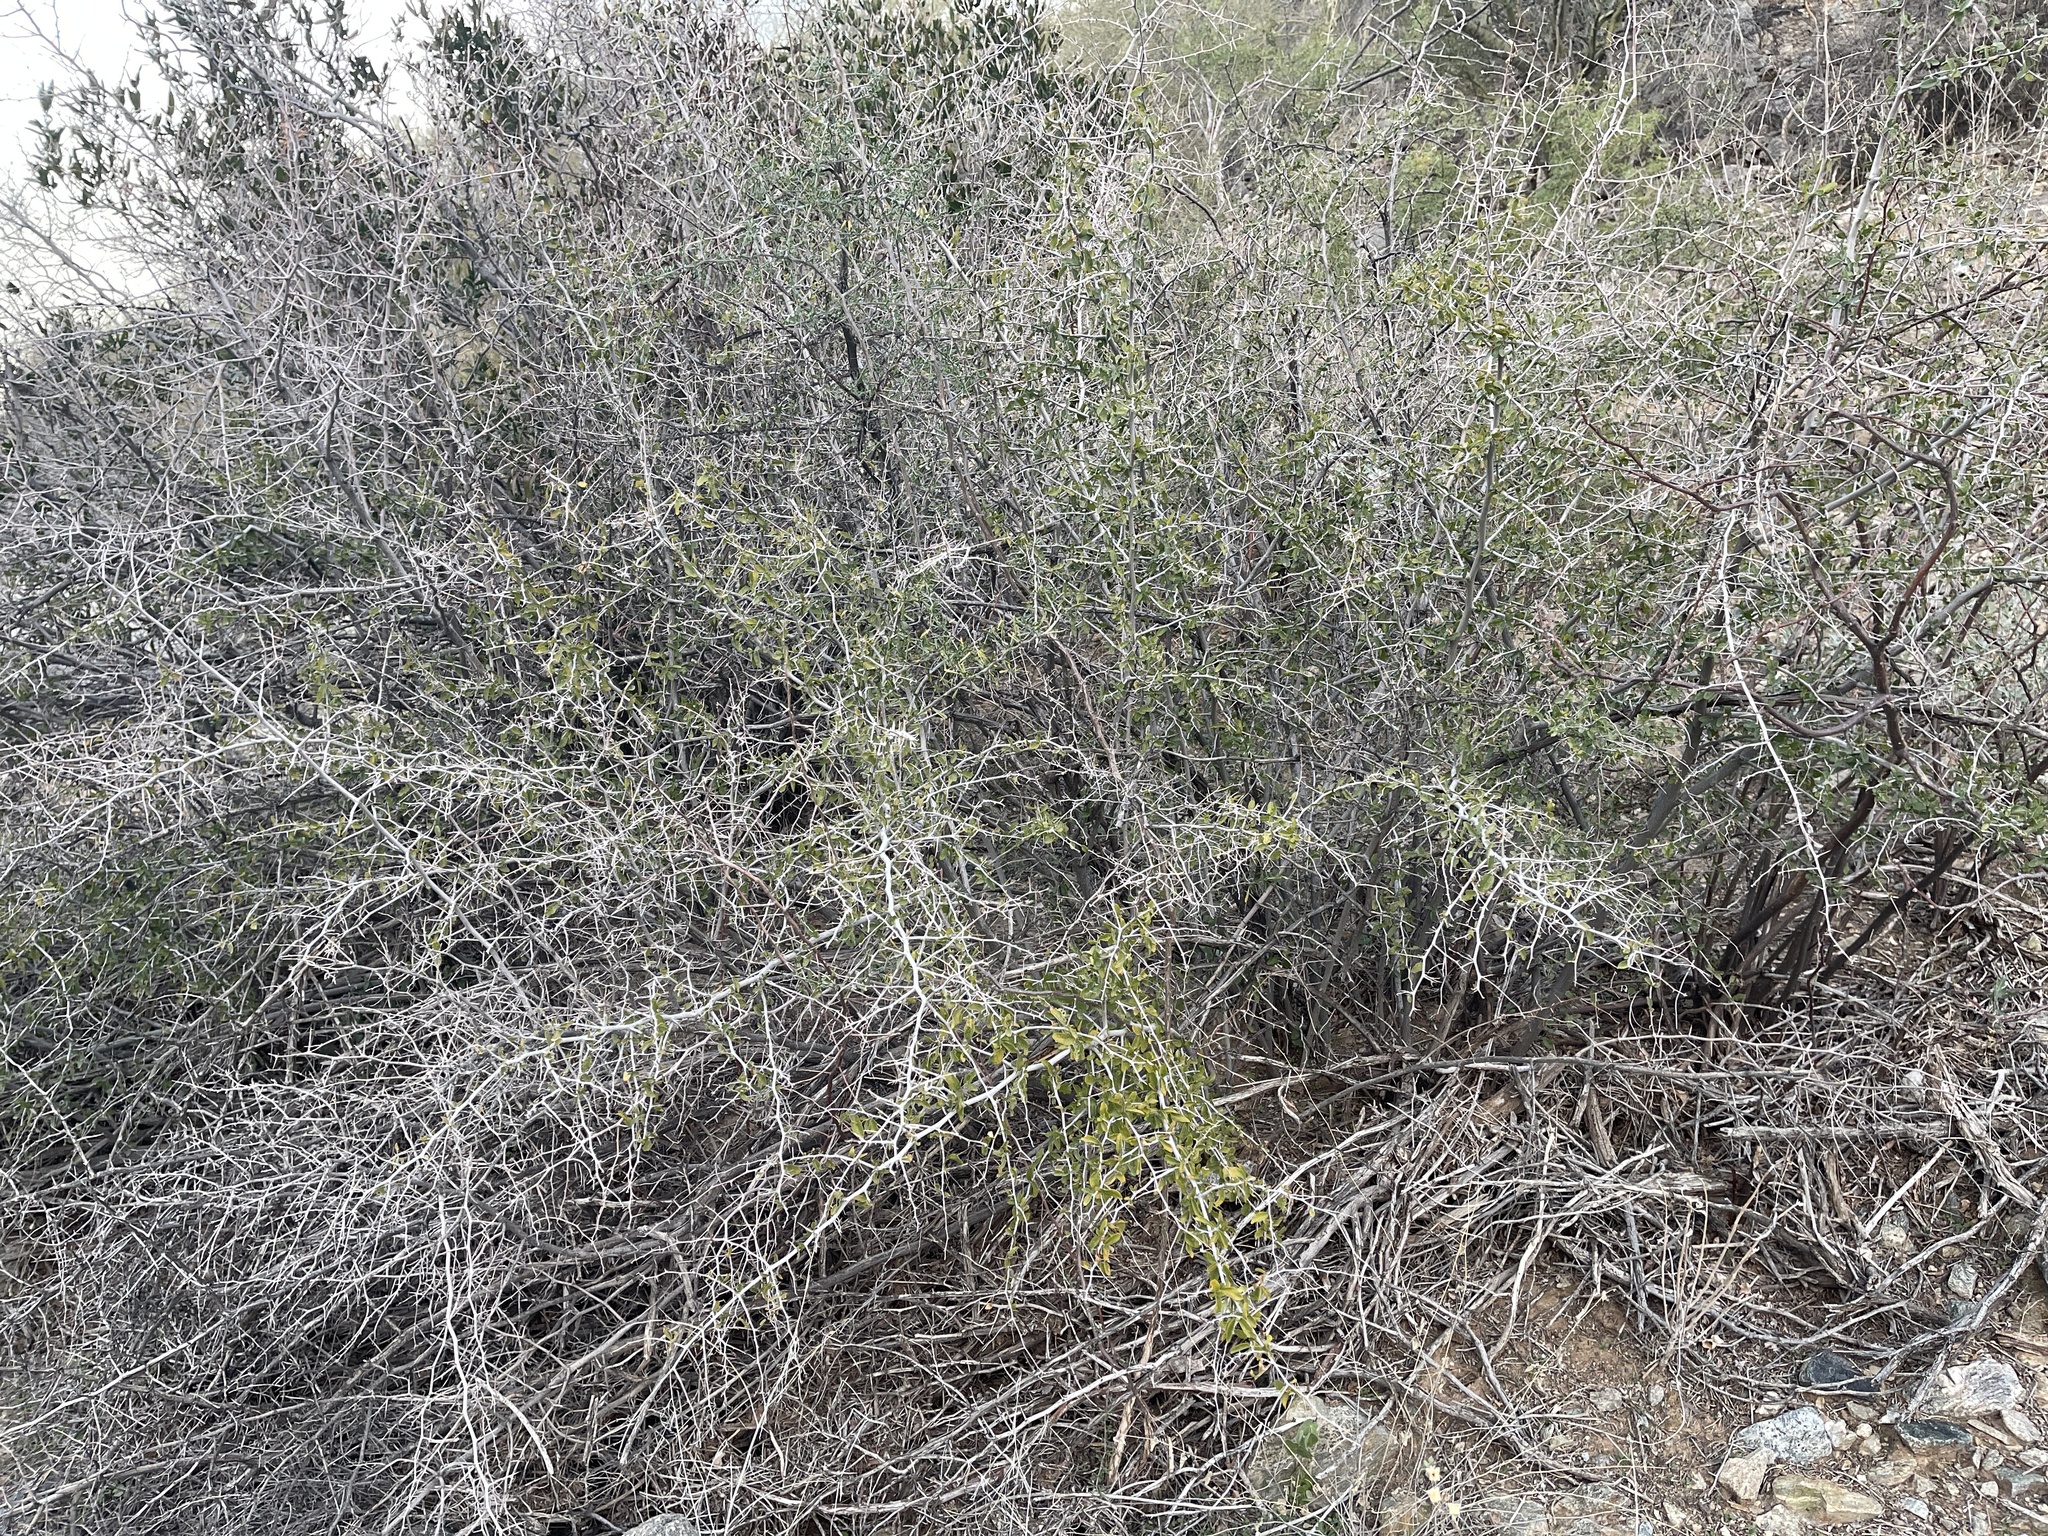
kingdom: Plantae
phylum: Tracheophyta
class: Magnoliopsida
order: Rosales
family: Cannabaceae
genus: Celtis
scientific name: Celtis pallida
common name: Desert hackberry
